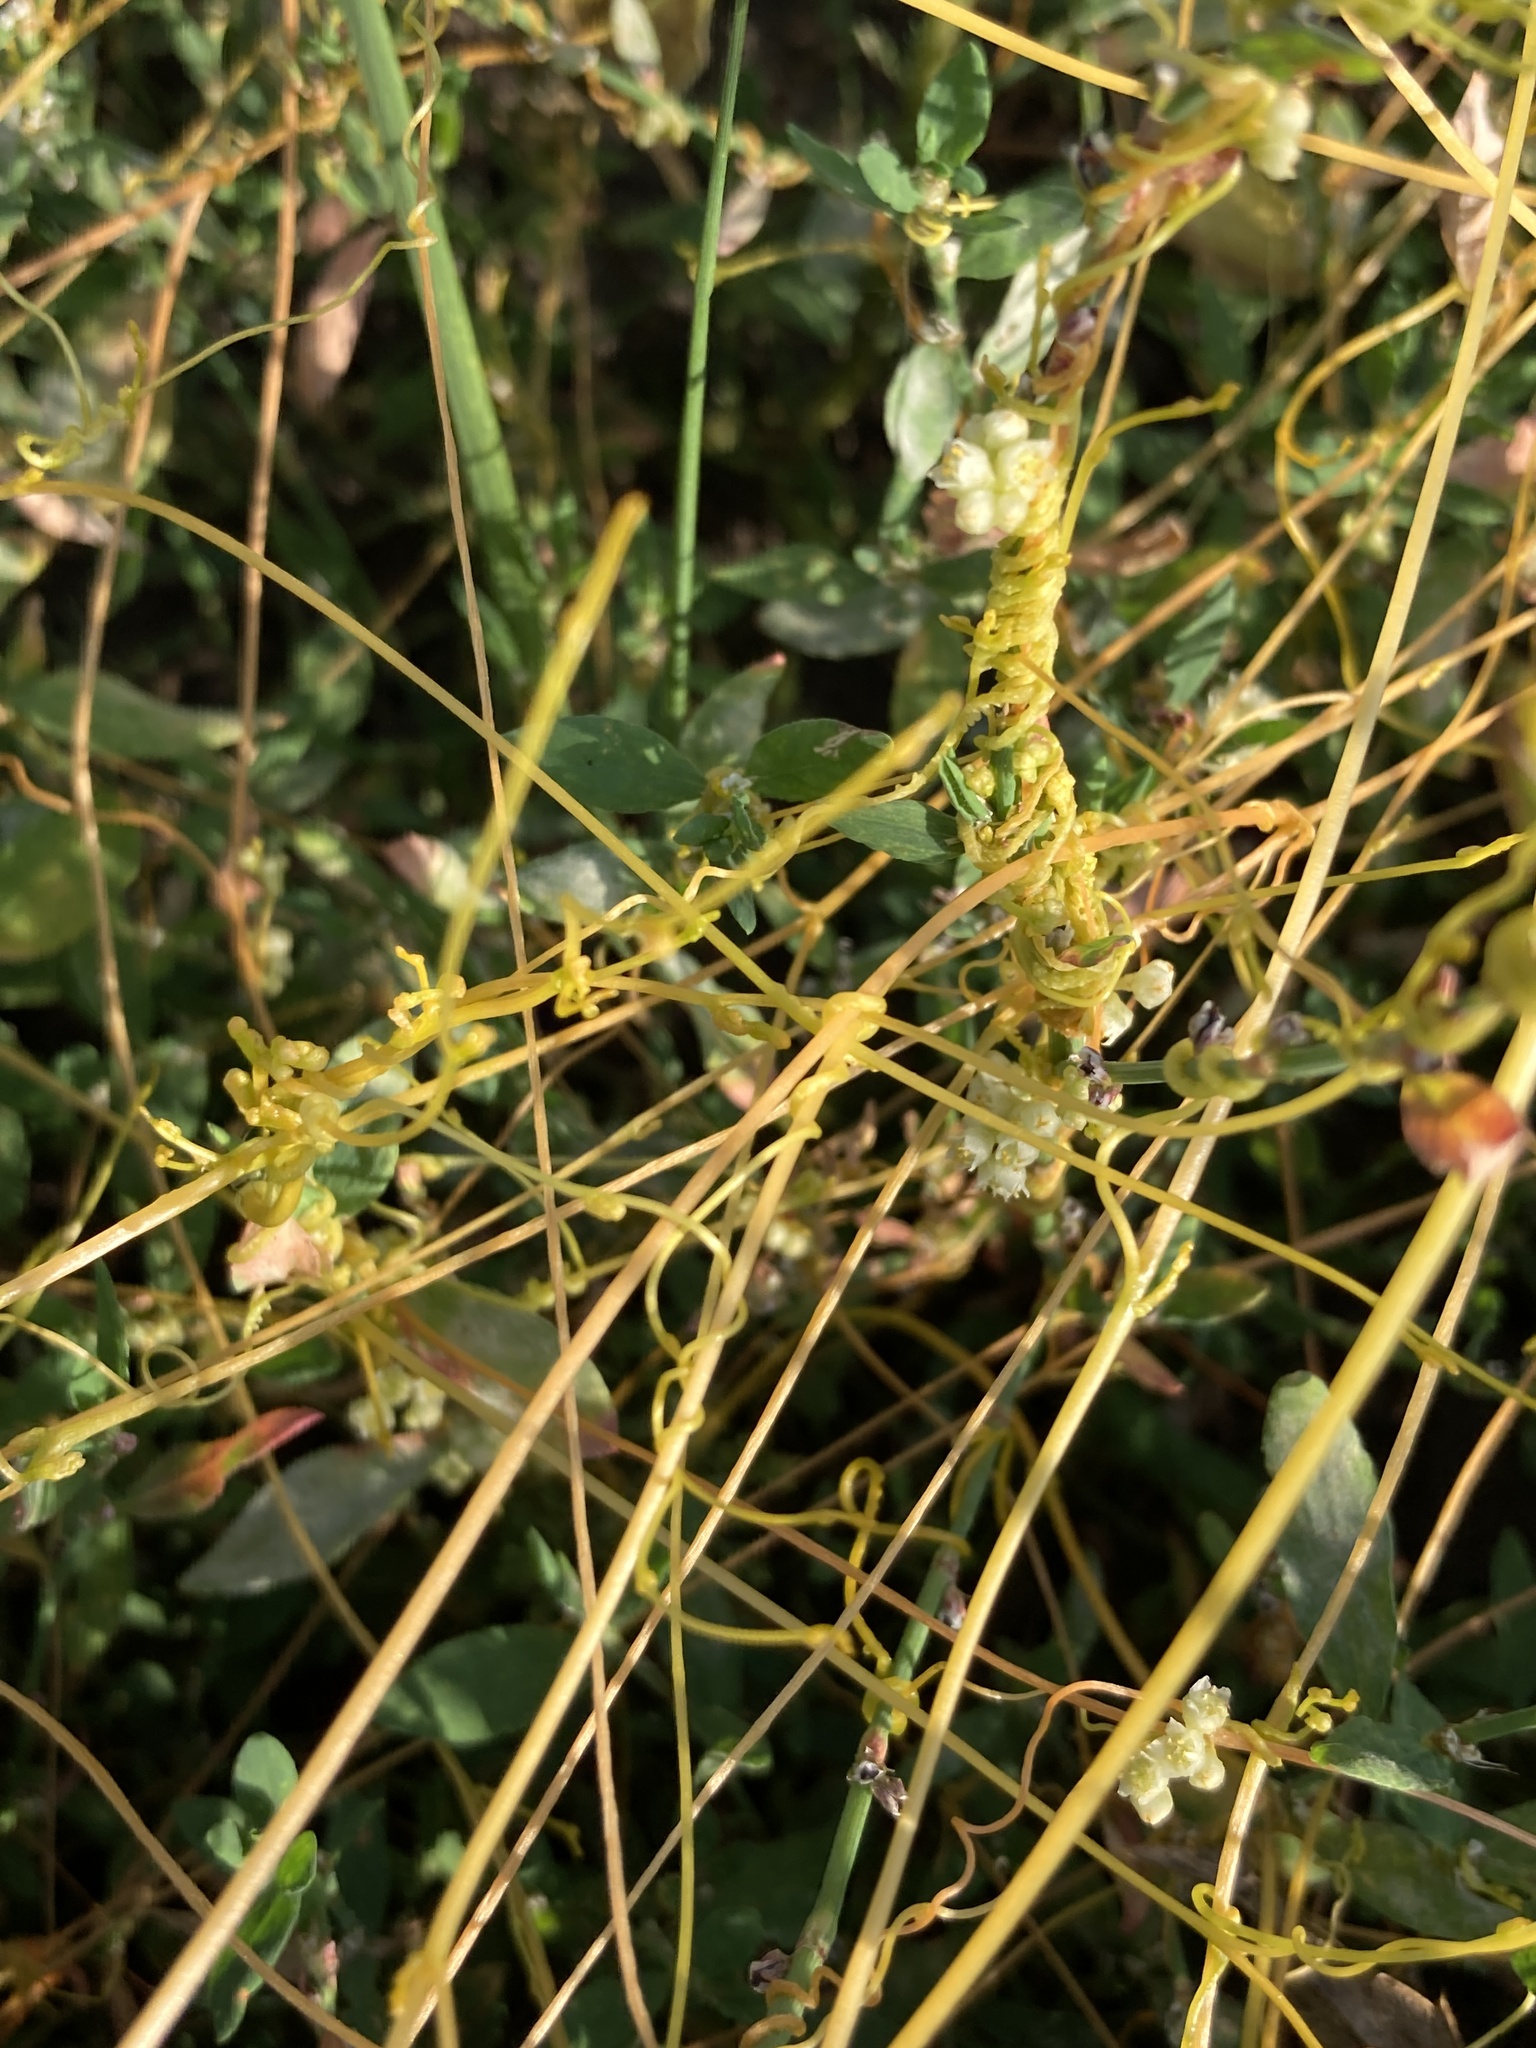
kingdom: Plantae
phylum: Tracheophyta
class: Magnoliopsida
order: Solanales
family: Convolvulaceae
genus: Cuscuta
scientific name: Cuscuta campestris
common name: Yellow dodder
